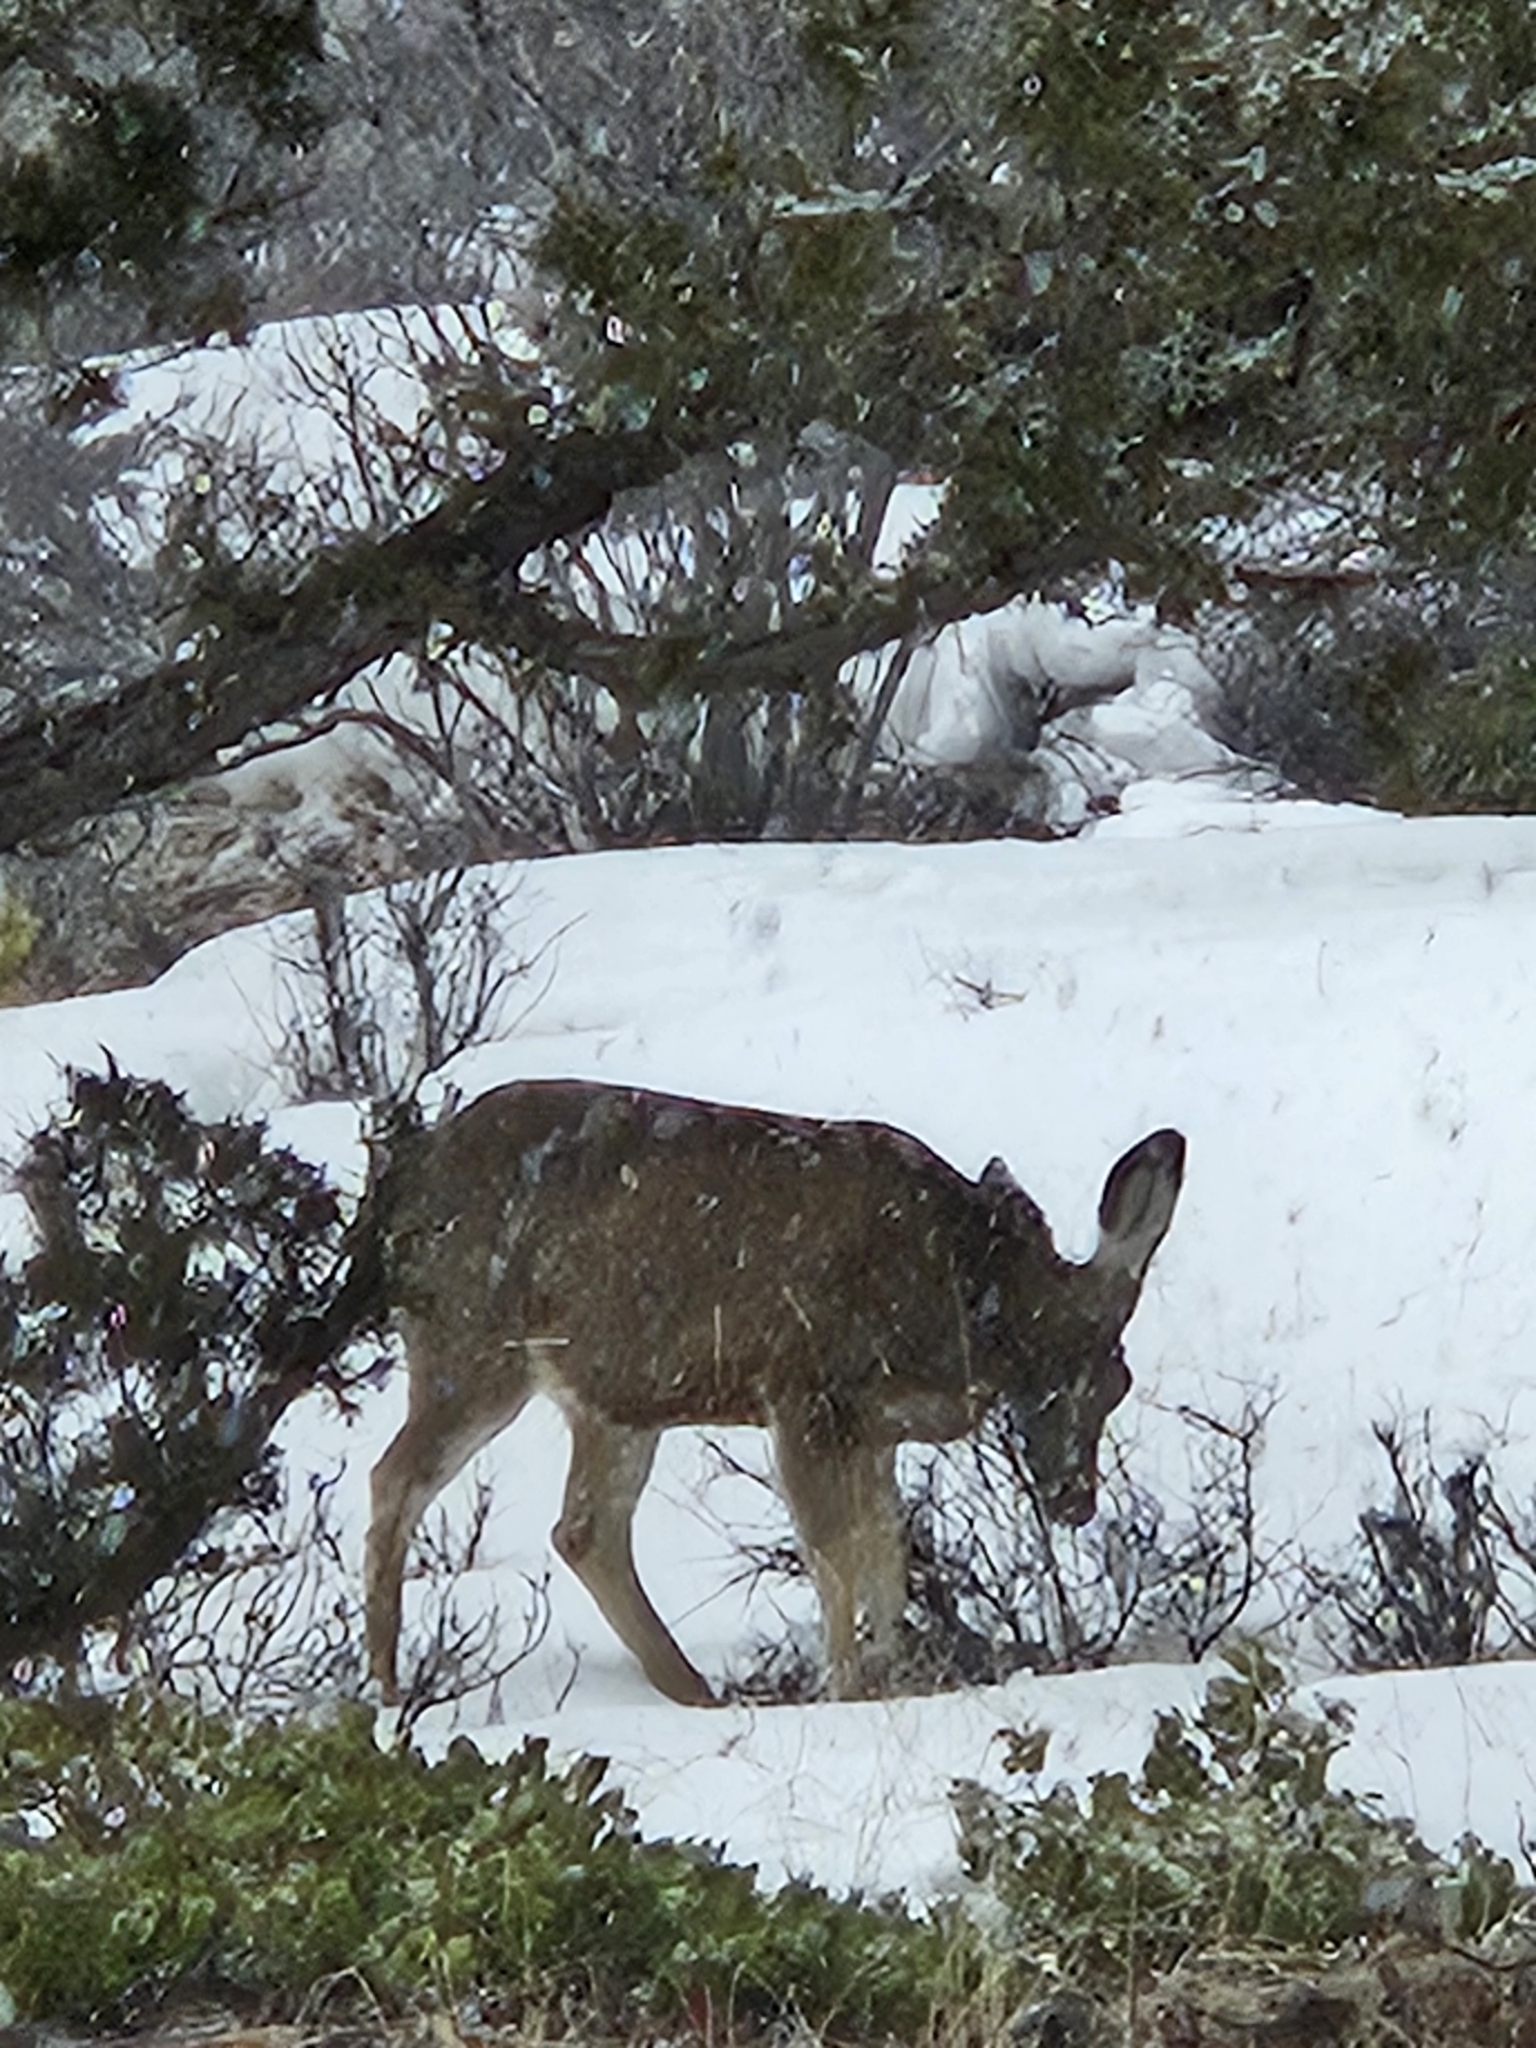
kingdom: Animalia
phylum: Chordata
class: Mammalia
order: Artiodactyla
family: Cervidae
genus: Odocoileus
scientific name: Odocoileus hemionus
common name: Mule deer
